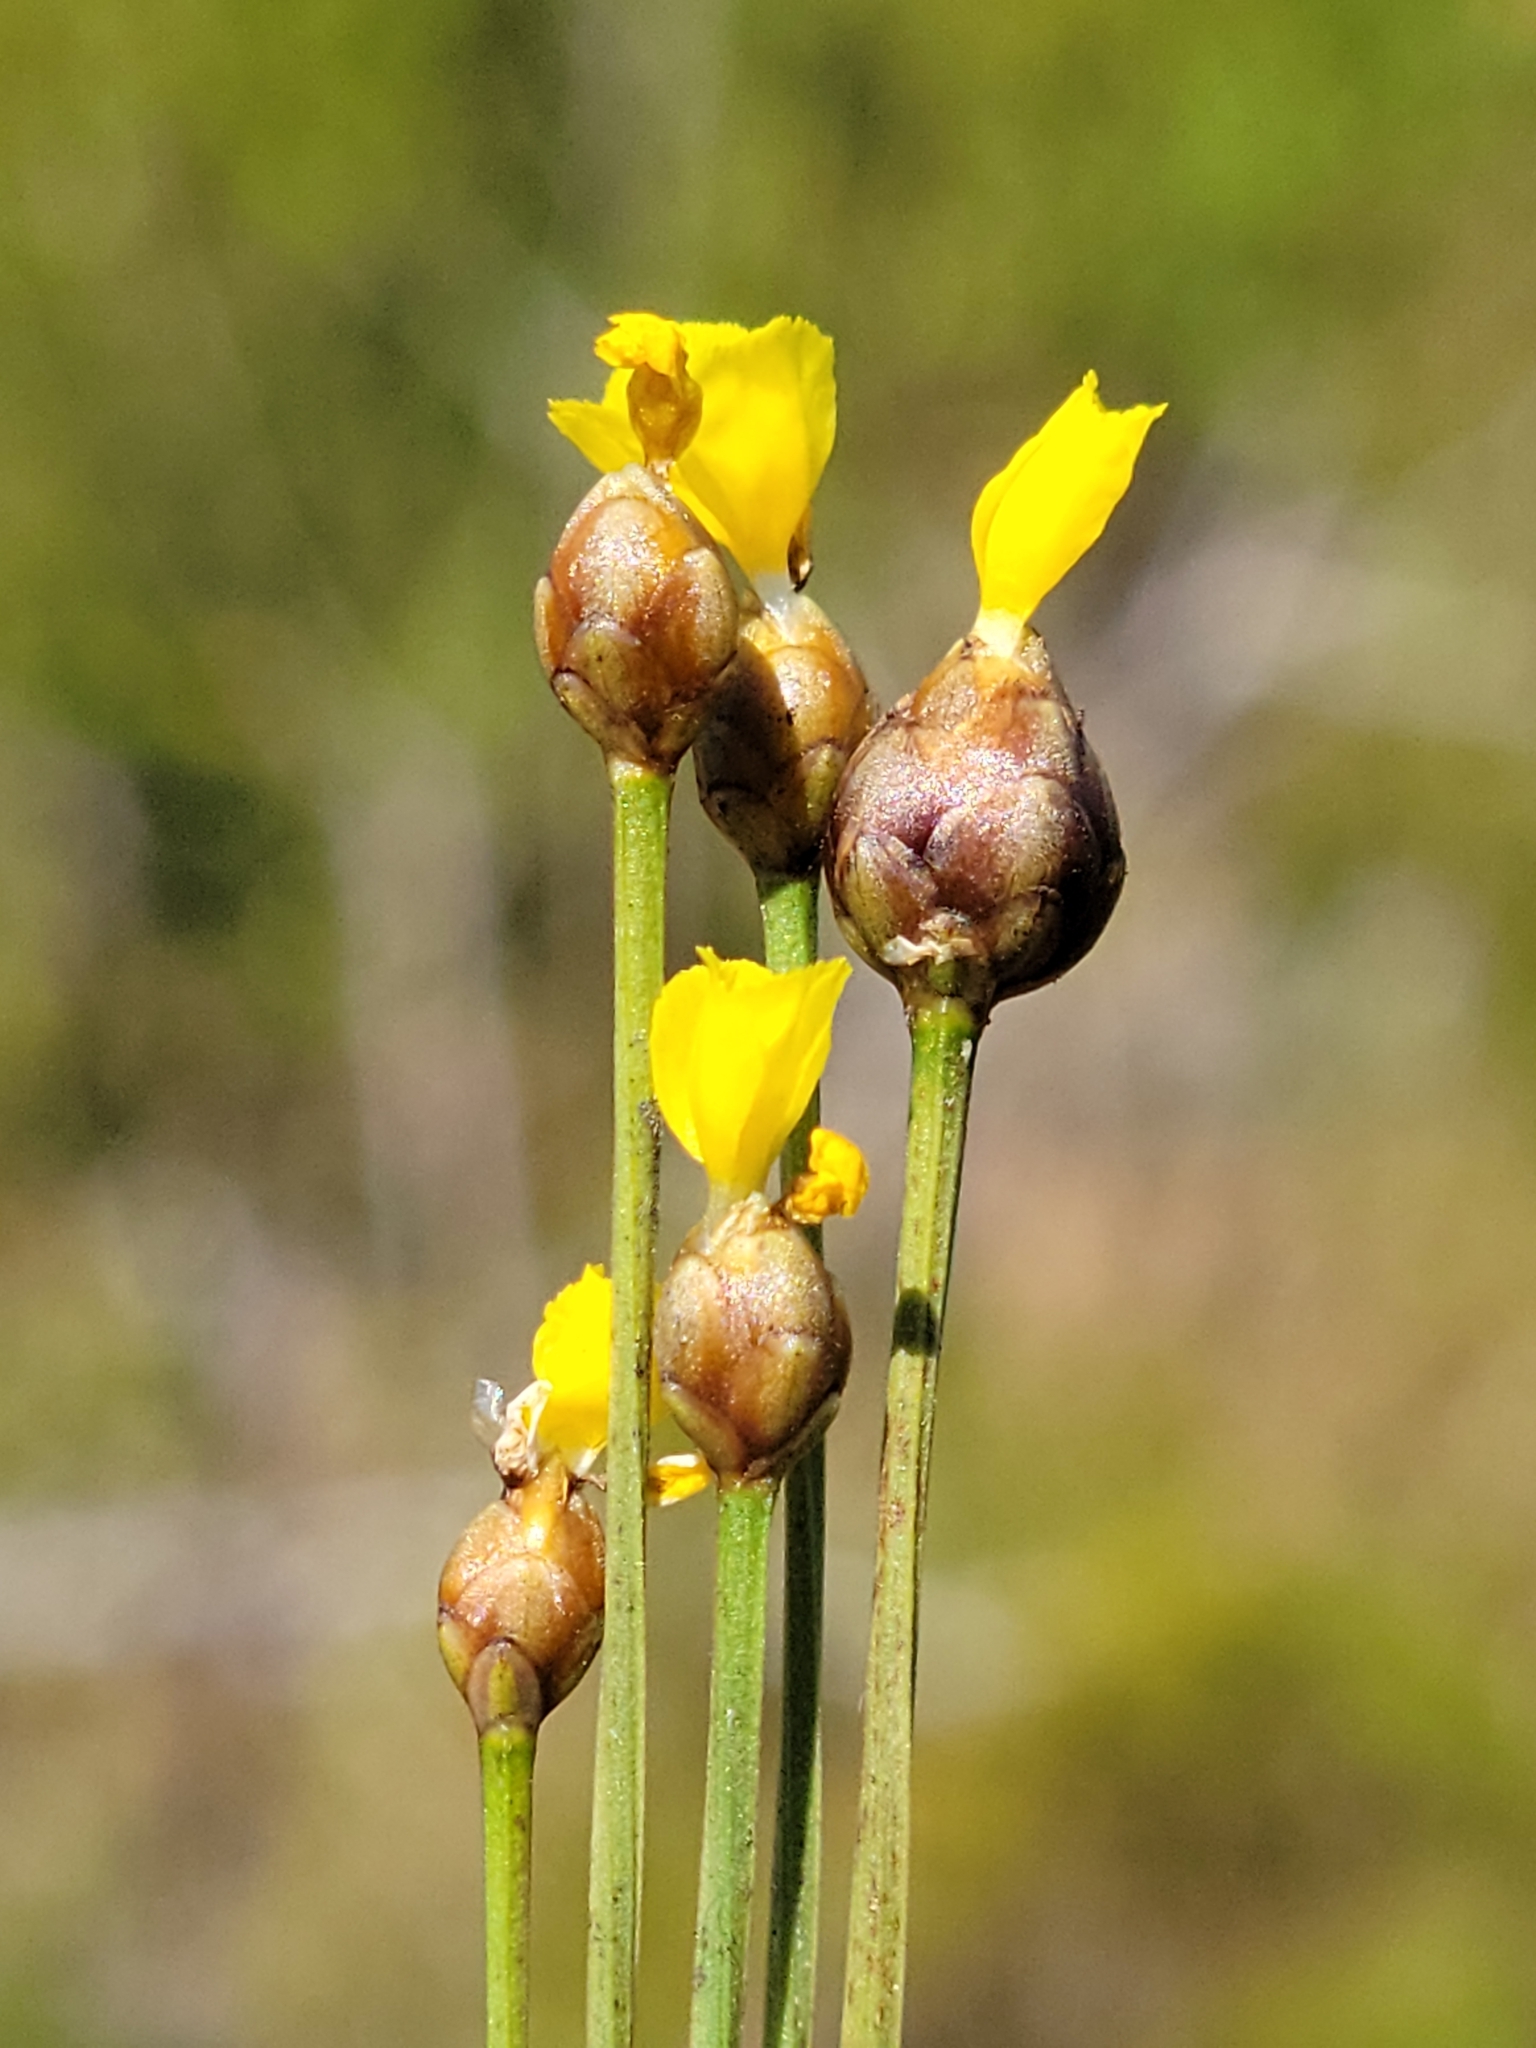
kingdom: Plantae
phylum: Tracheophyta
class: Liliopsida
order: Poales
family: Xyridaceae
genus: Xyris
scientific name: Xyris difformis
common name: Bog yellow-eyed-grass
